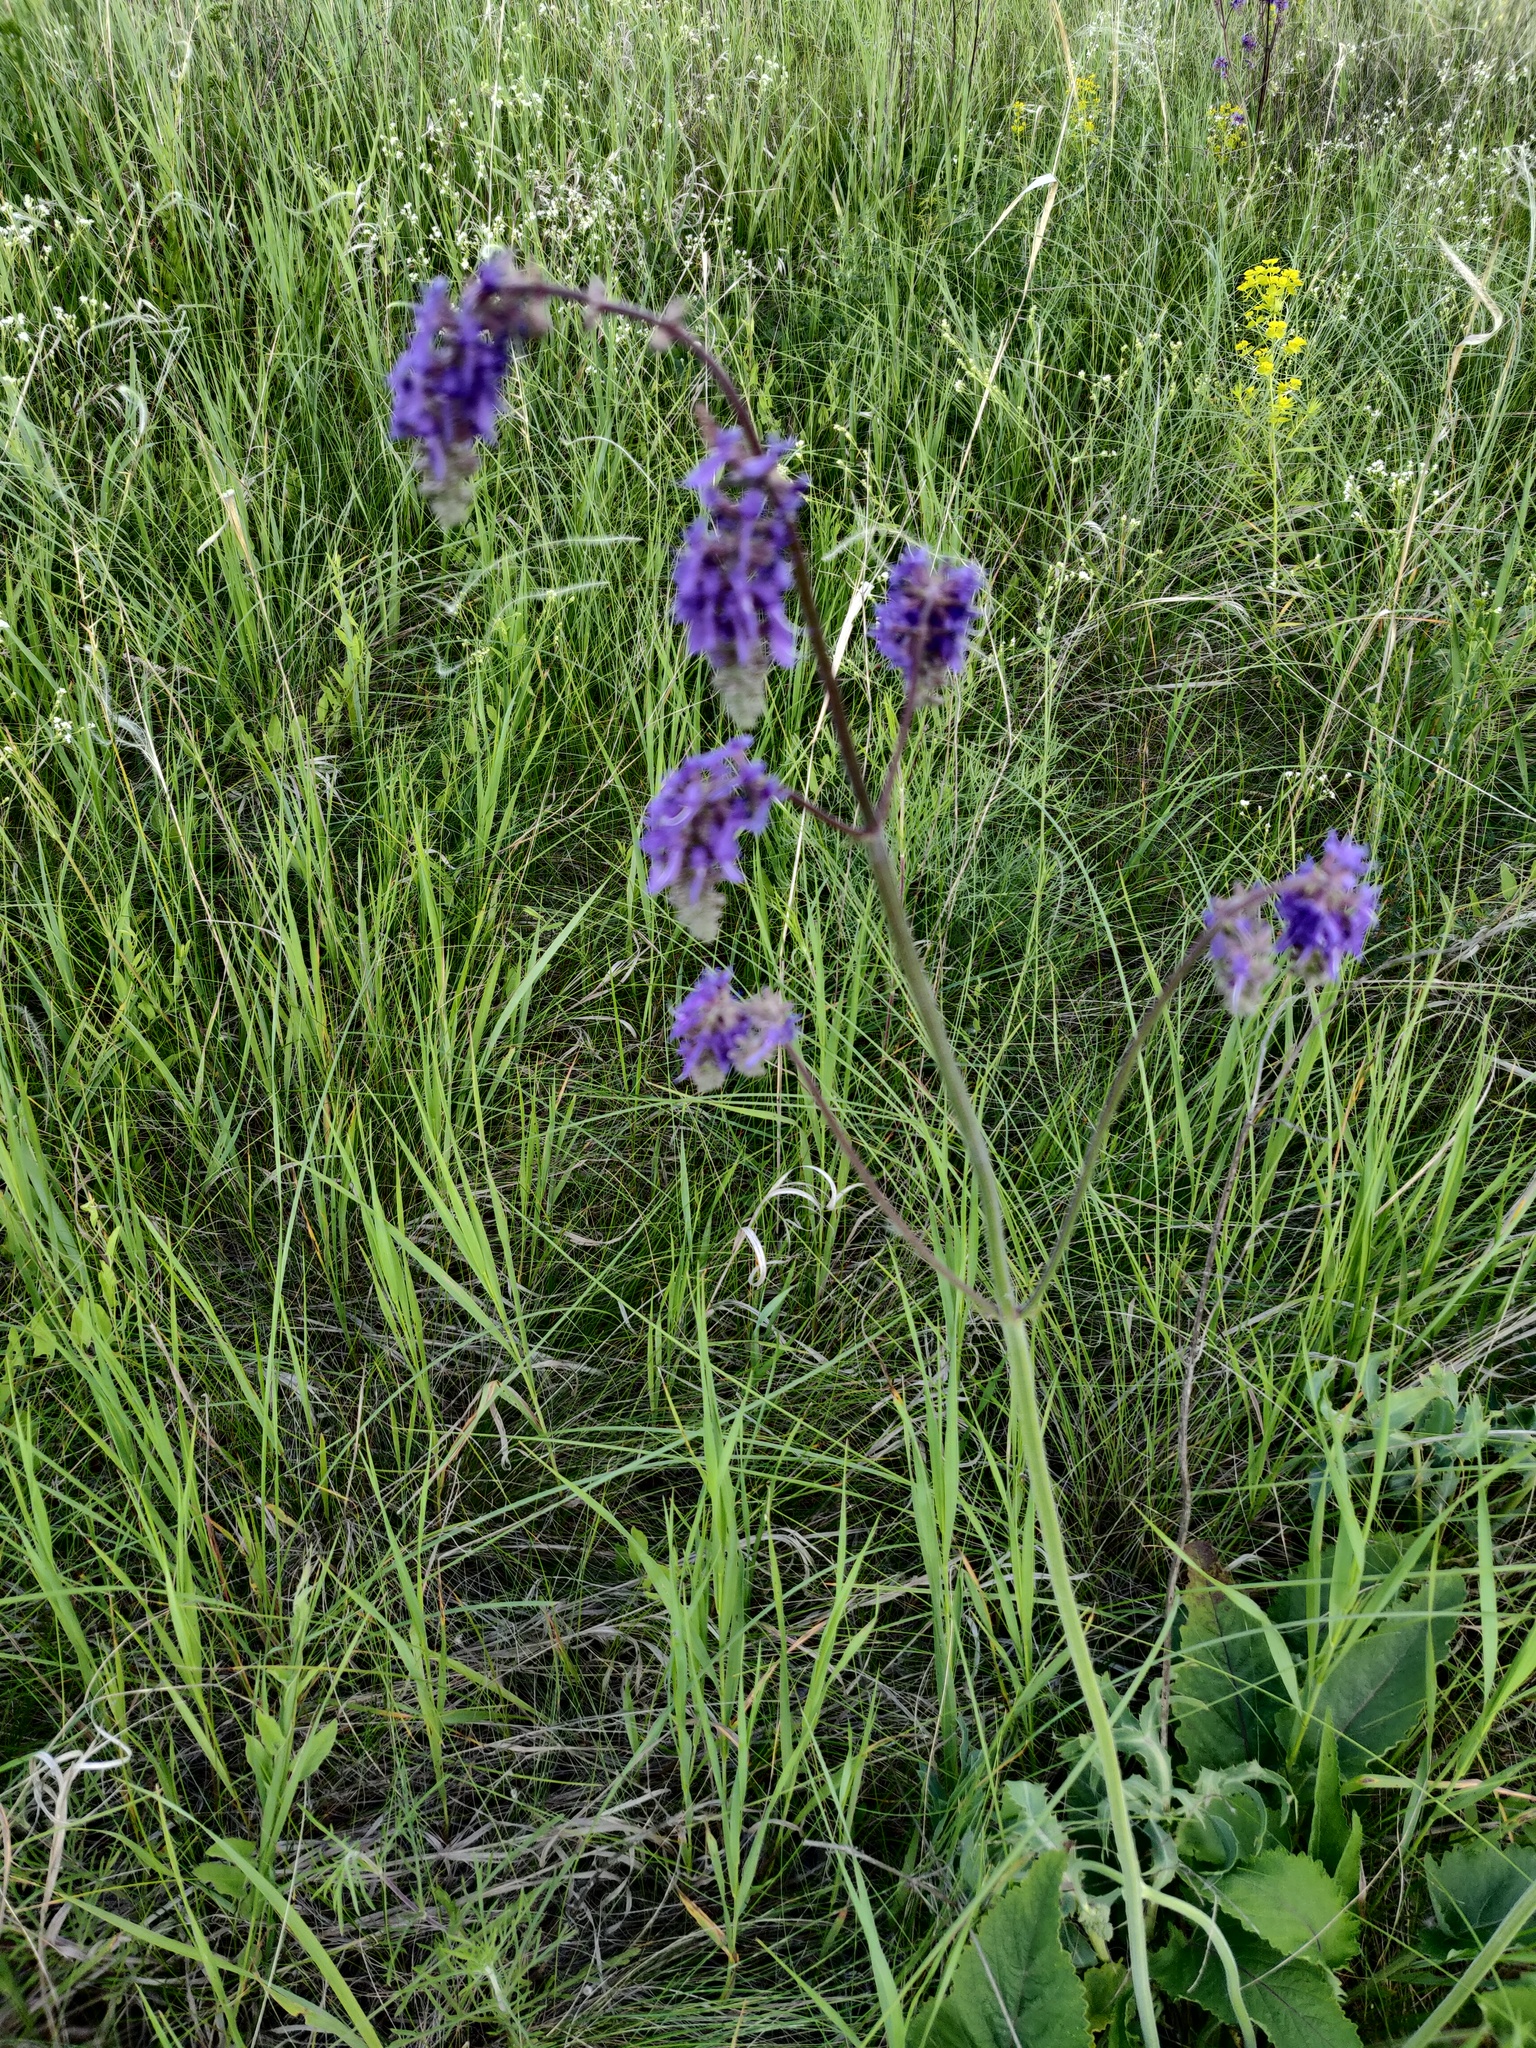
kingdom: Plantae
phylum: Tracheophyta
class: Magnoliopsida
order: Lamiales
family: Lamiaceae
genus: Salvia
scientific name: Salvia nutans
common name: Nodding sage
